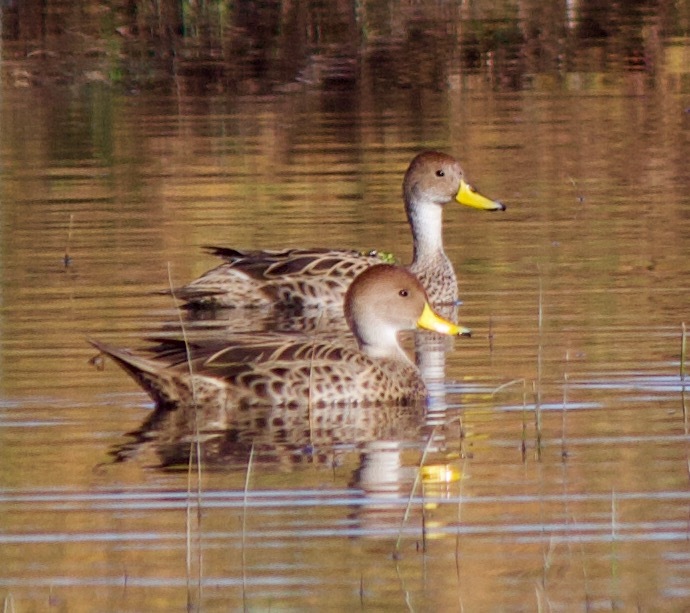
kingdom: Animalia
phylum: Chordata
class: Aves
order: Anseriformes
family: Anatidae
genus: Anas
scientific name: Anas georgica
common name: Yellow-billed pintail
